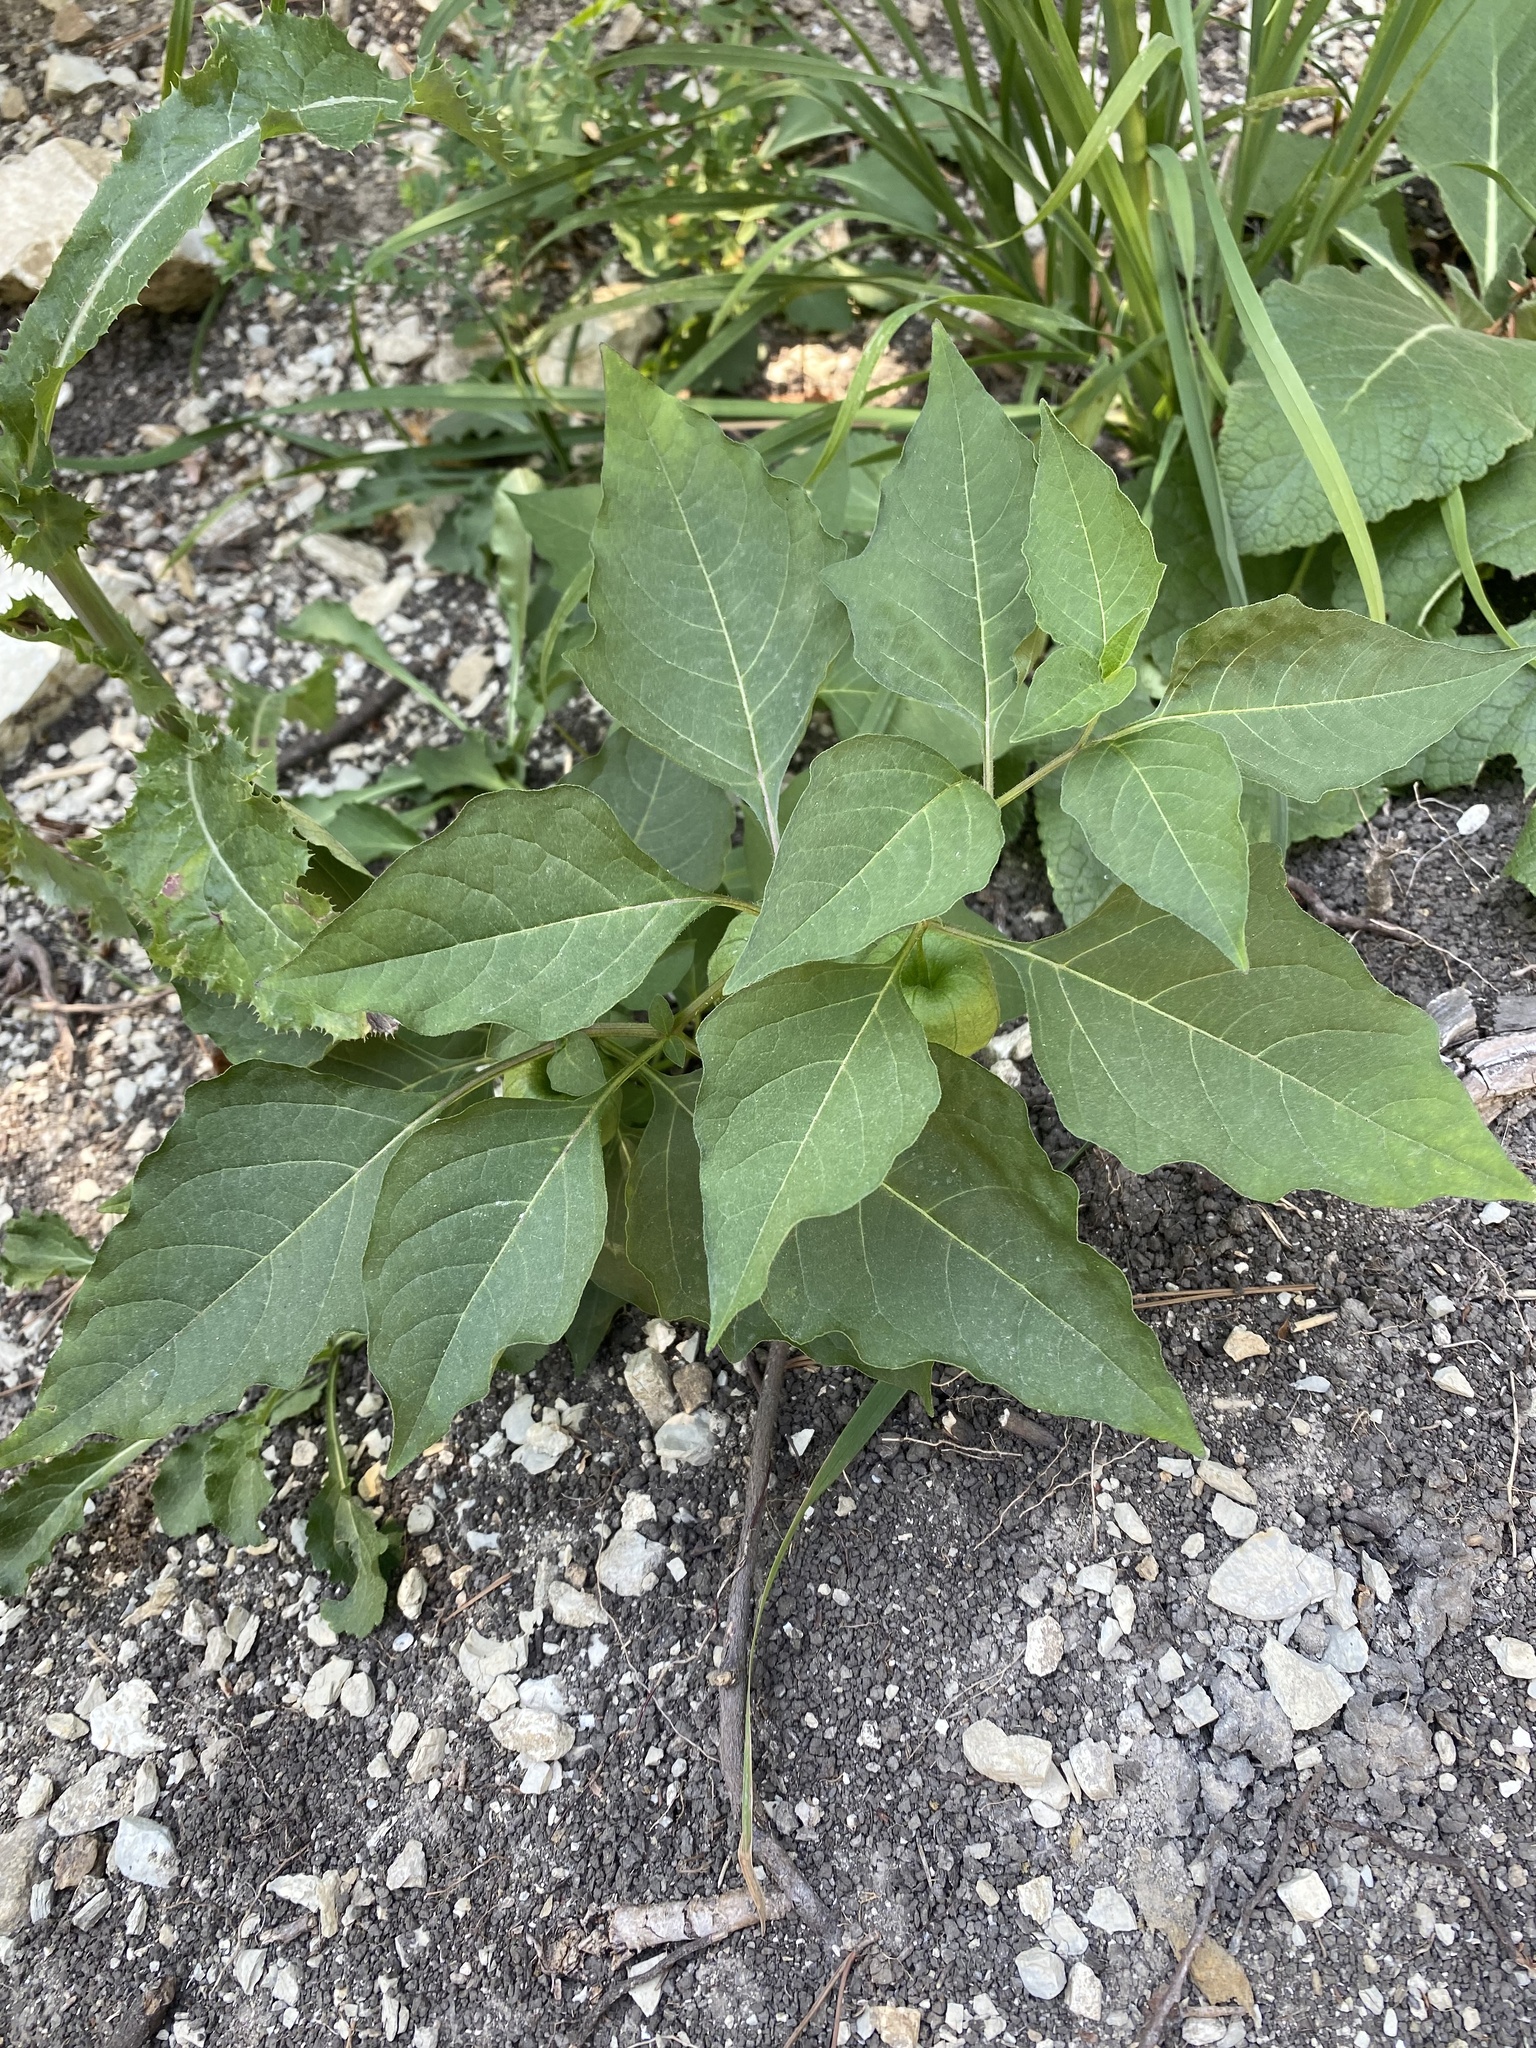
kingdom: Plantae
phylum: Tracheophyta
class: Magnoliopsida
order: Solanales
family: Solanaceae
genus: Alkekengi
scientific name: Alkekengi officinarum
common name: Japanese-lantern
